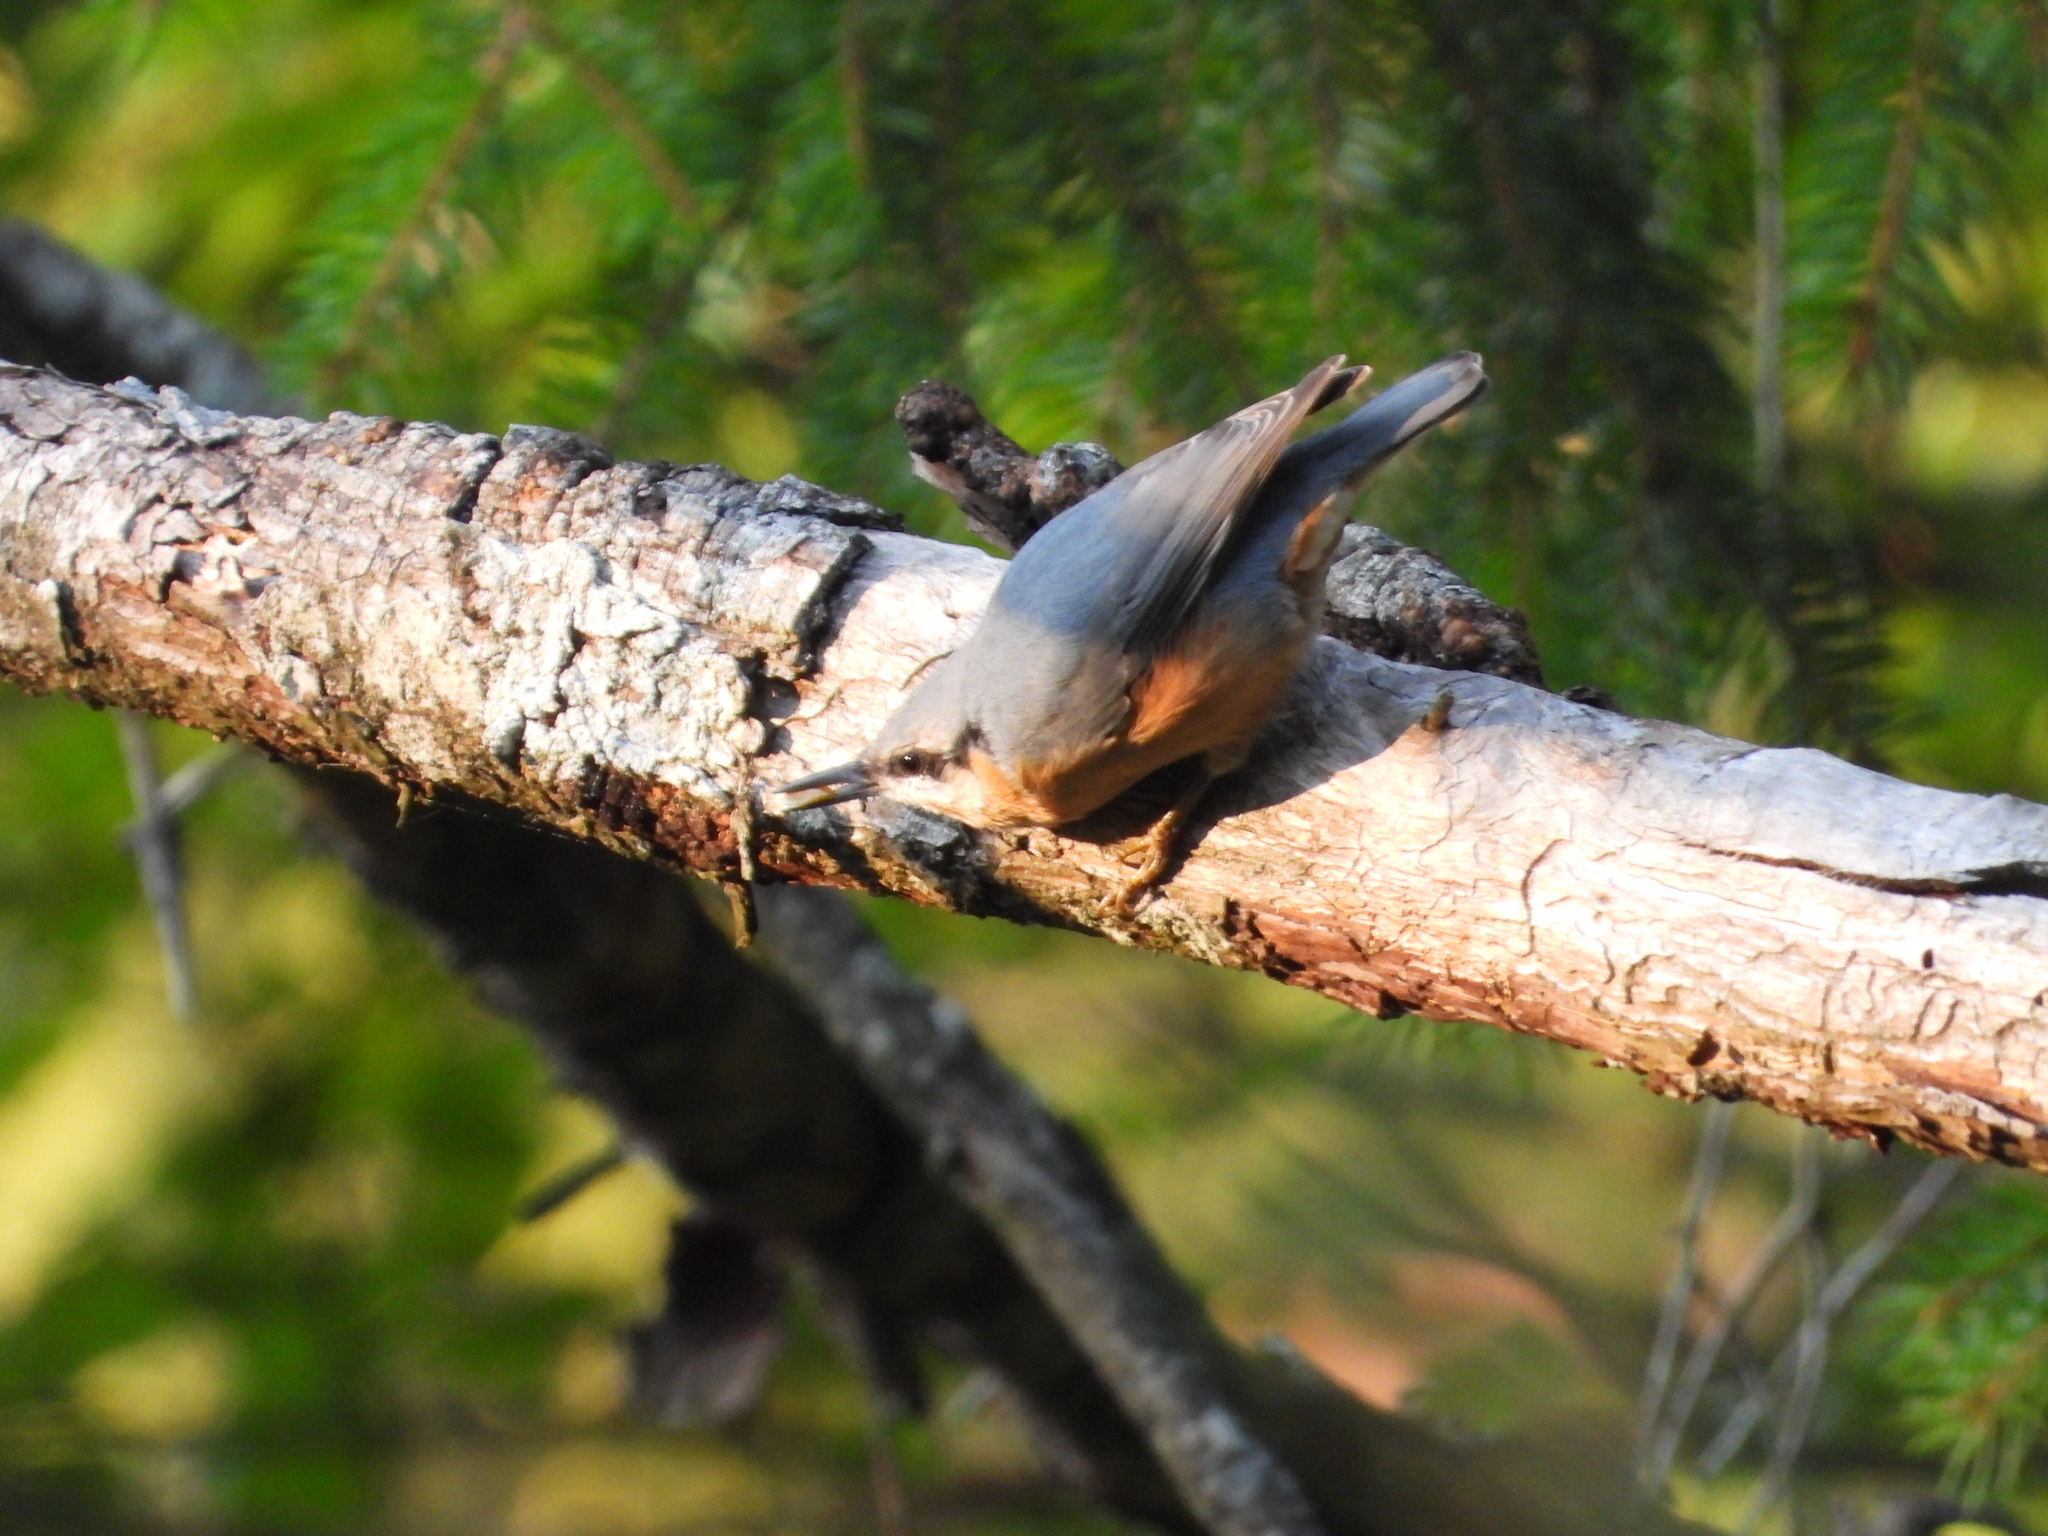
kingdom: Animalia
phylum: Chordata
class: Aves
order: Passeriformes
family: Sittidae
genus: Sitta
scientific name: Sitta europaea
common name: Eurasian nuthatch
